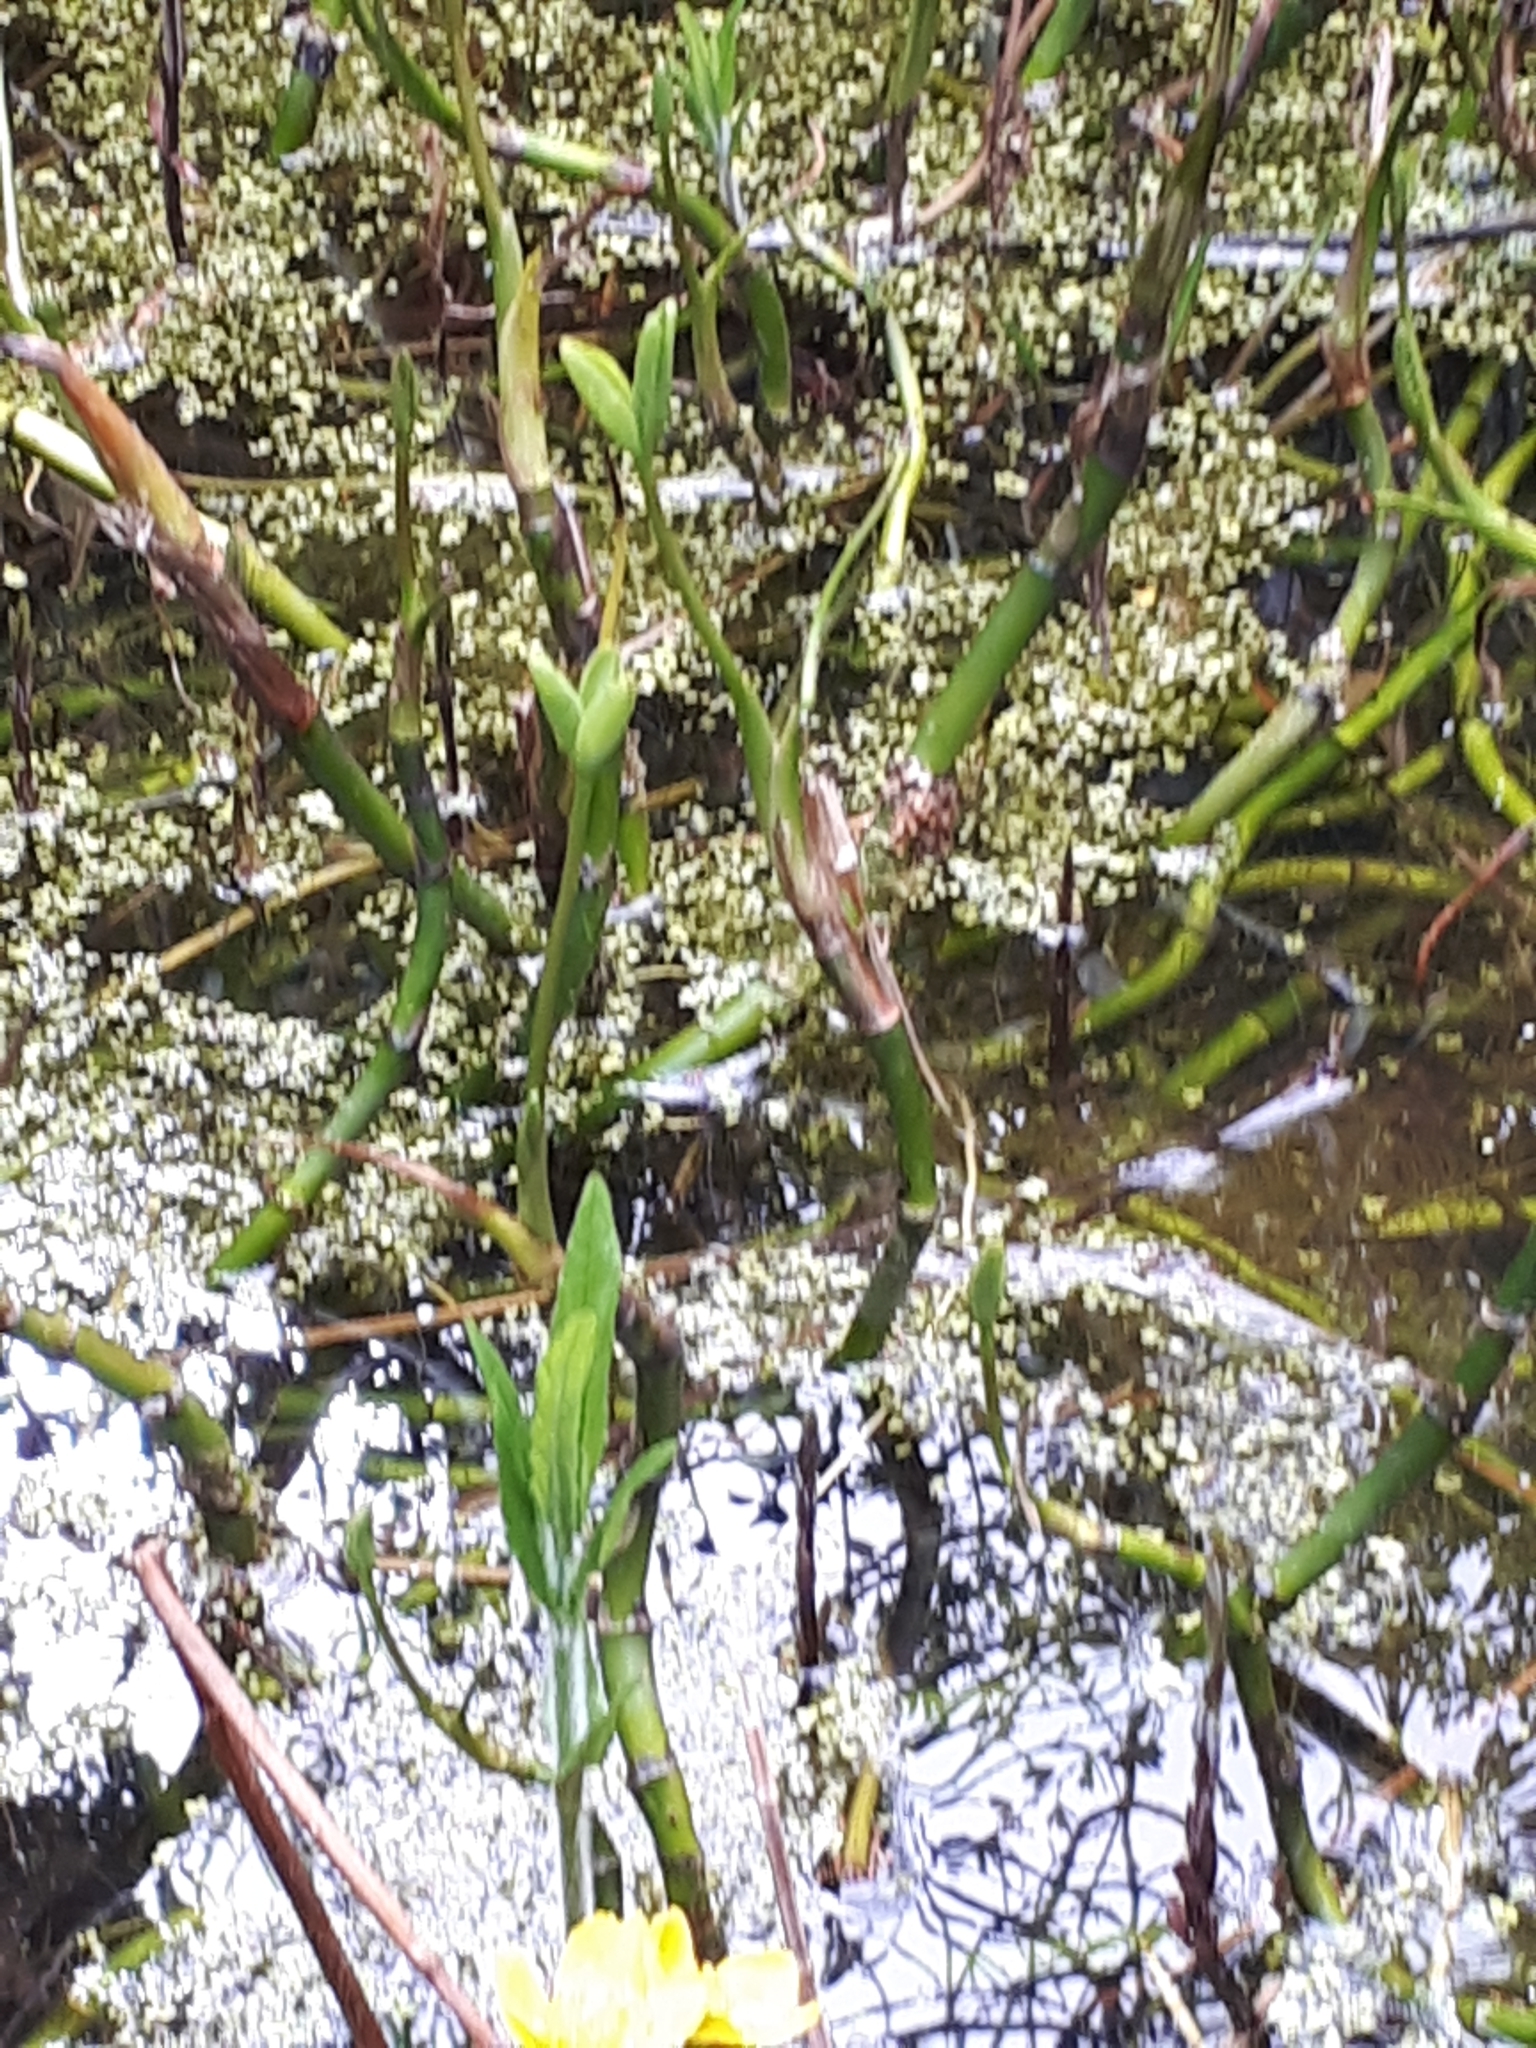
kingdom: Plantae
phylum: Tracheophyta
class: Magnoliopsida
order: Asterales
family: Menyanthaceae
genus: Menyanthes
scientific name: Menyanthes trifoliata
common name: Bogbean
